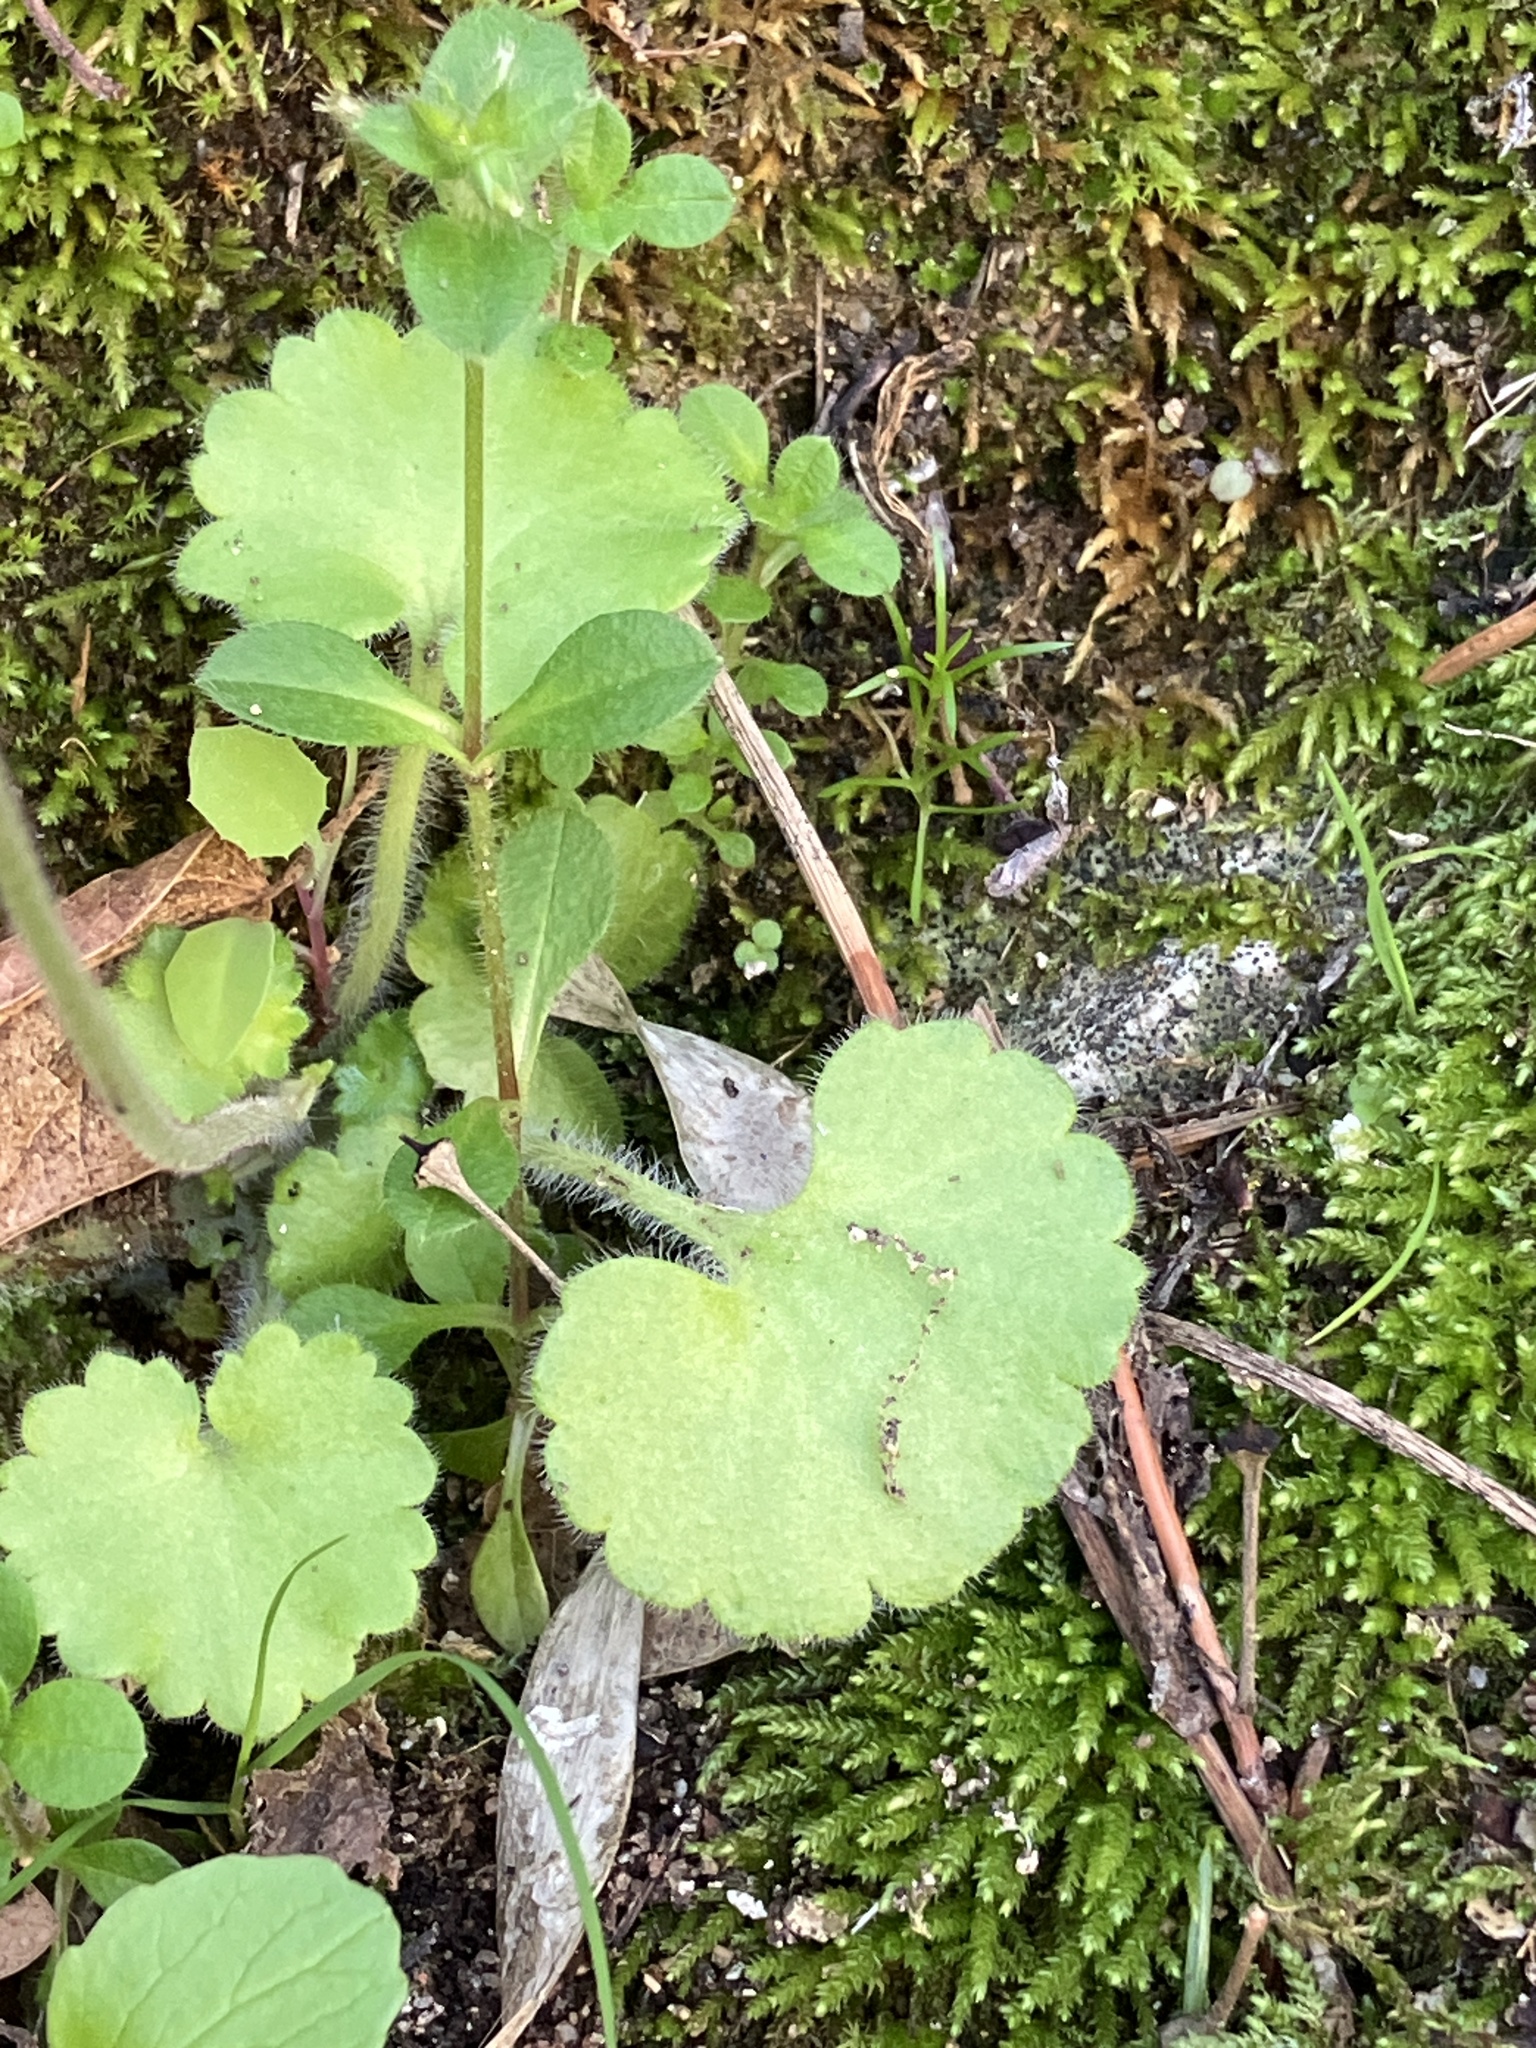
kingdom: Plantae
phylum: Tracheophyta
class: Magnoliopsida
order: Saxifragales
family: Saxifragaceae
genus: Saxifraga
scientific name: Saxifraga granulata
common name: Meadow saxifrage
